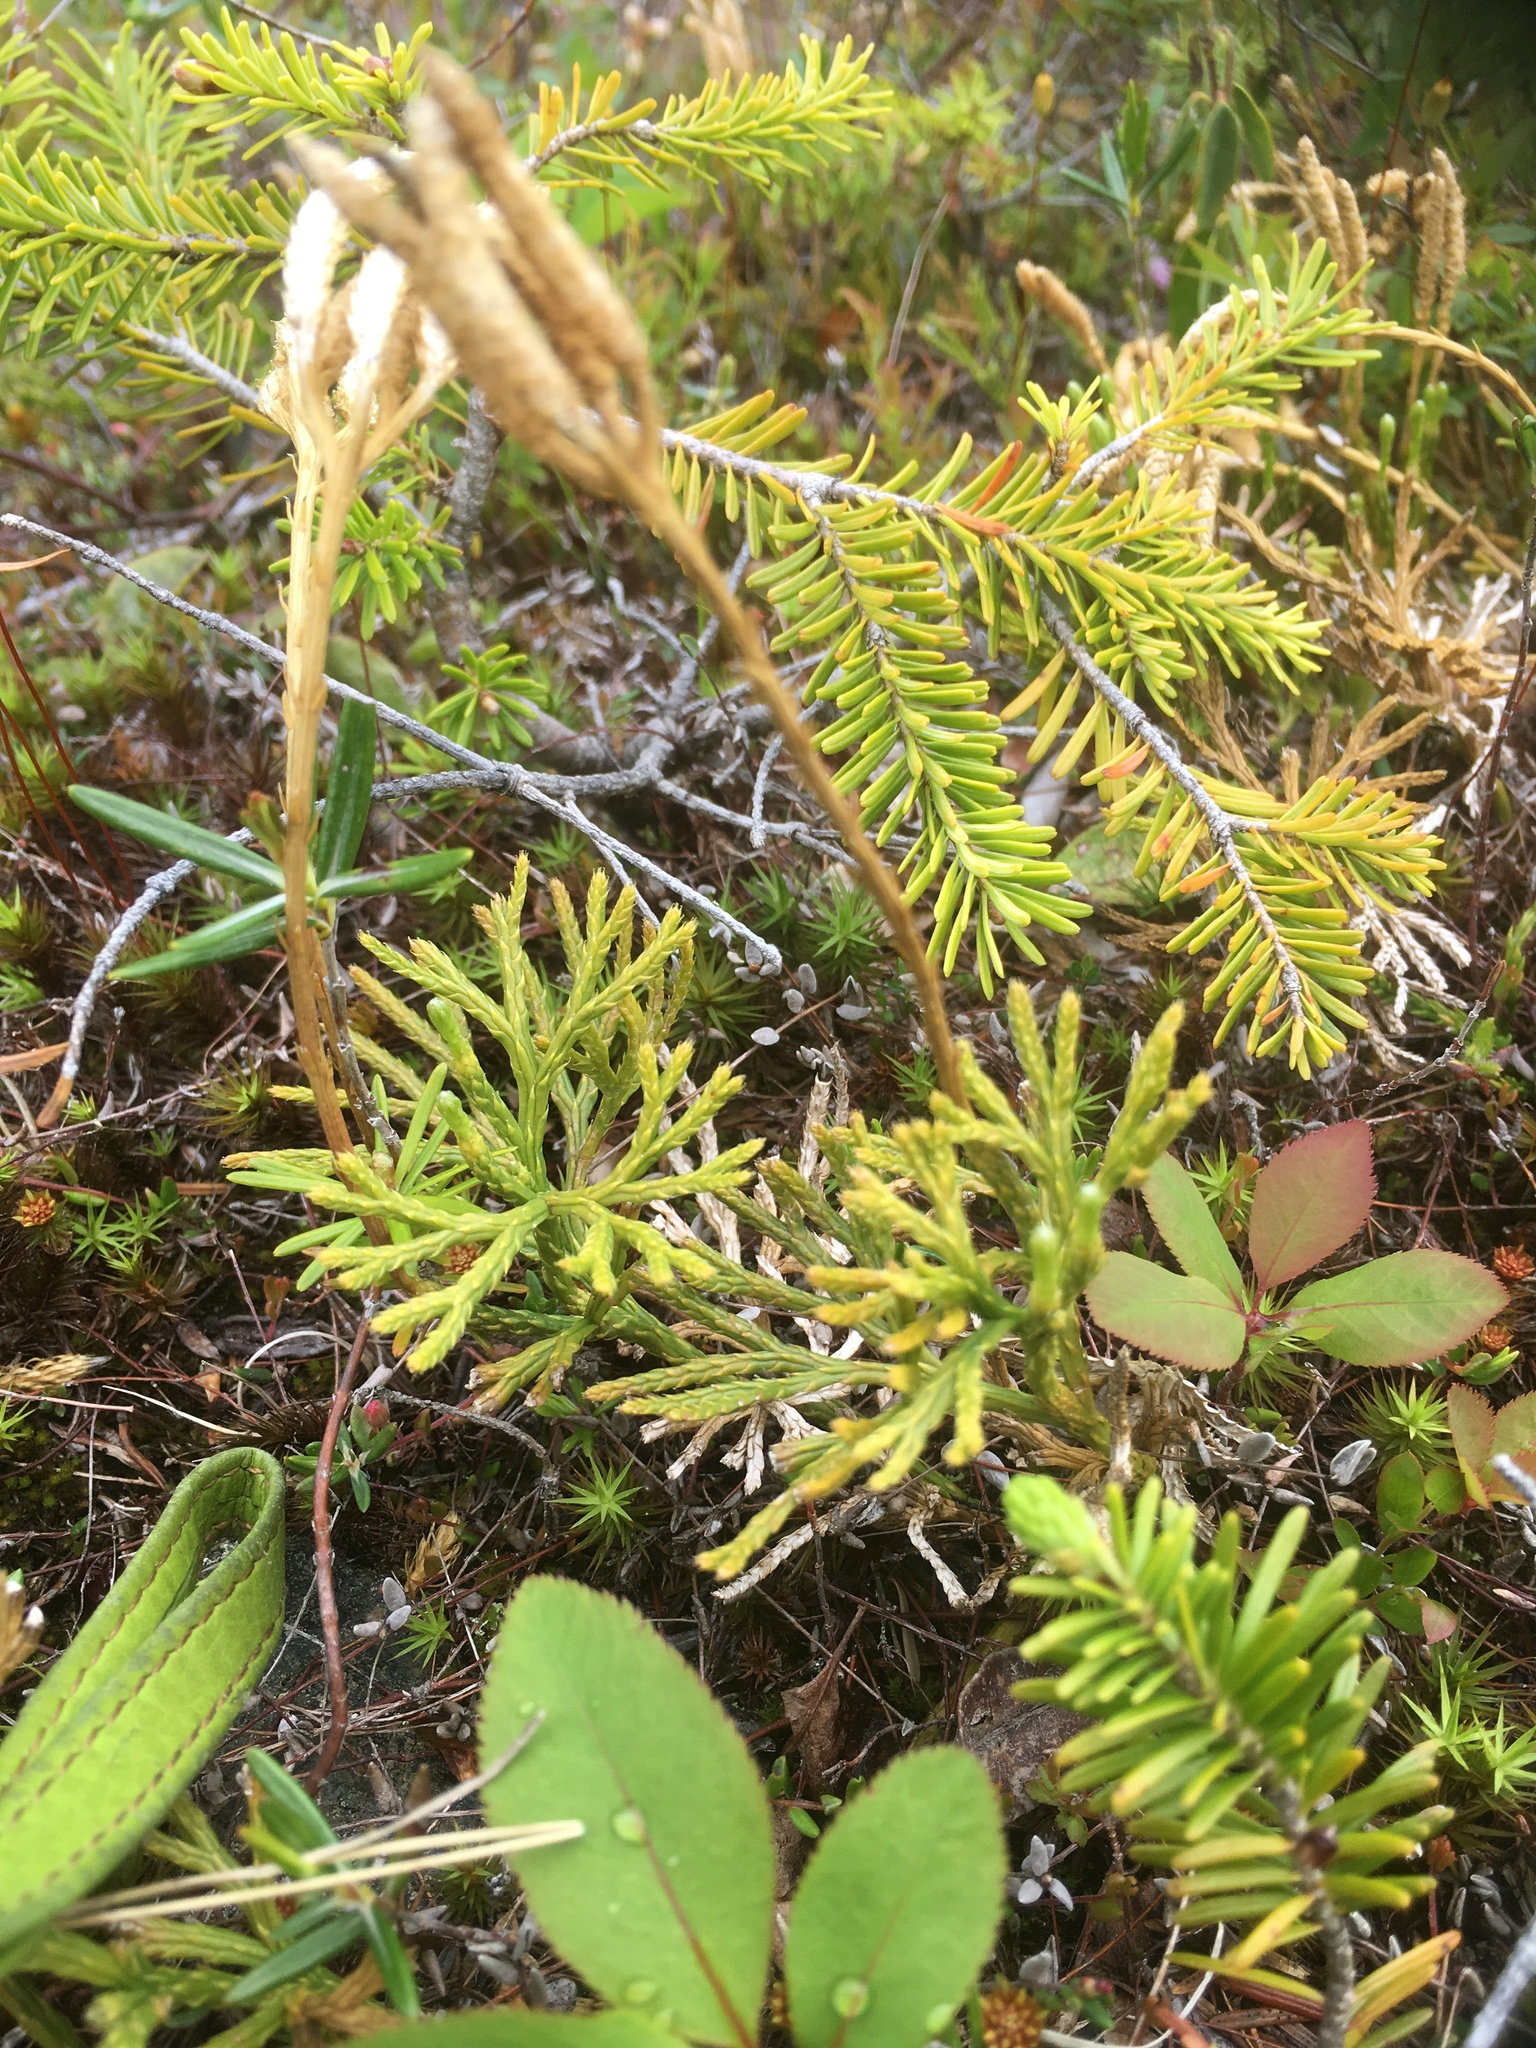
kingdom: Plantae
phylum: Tracheophyta
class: Lycopodiopsida
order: Lycopodiales
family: Lycopodiaceae
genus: Diphasiastrum
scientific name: Diphasiastrum digitatum
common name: Southern running-pine
